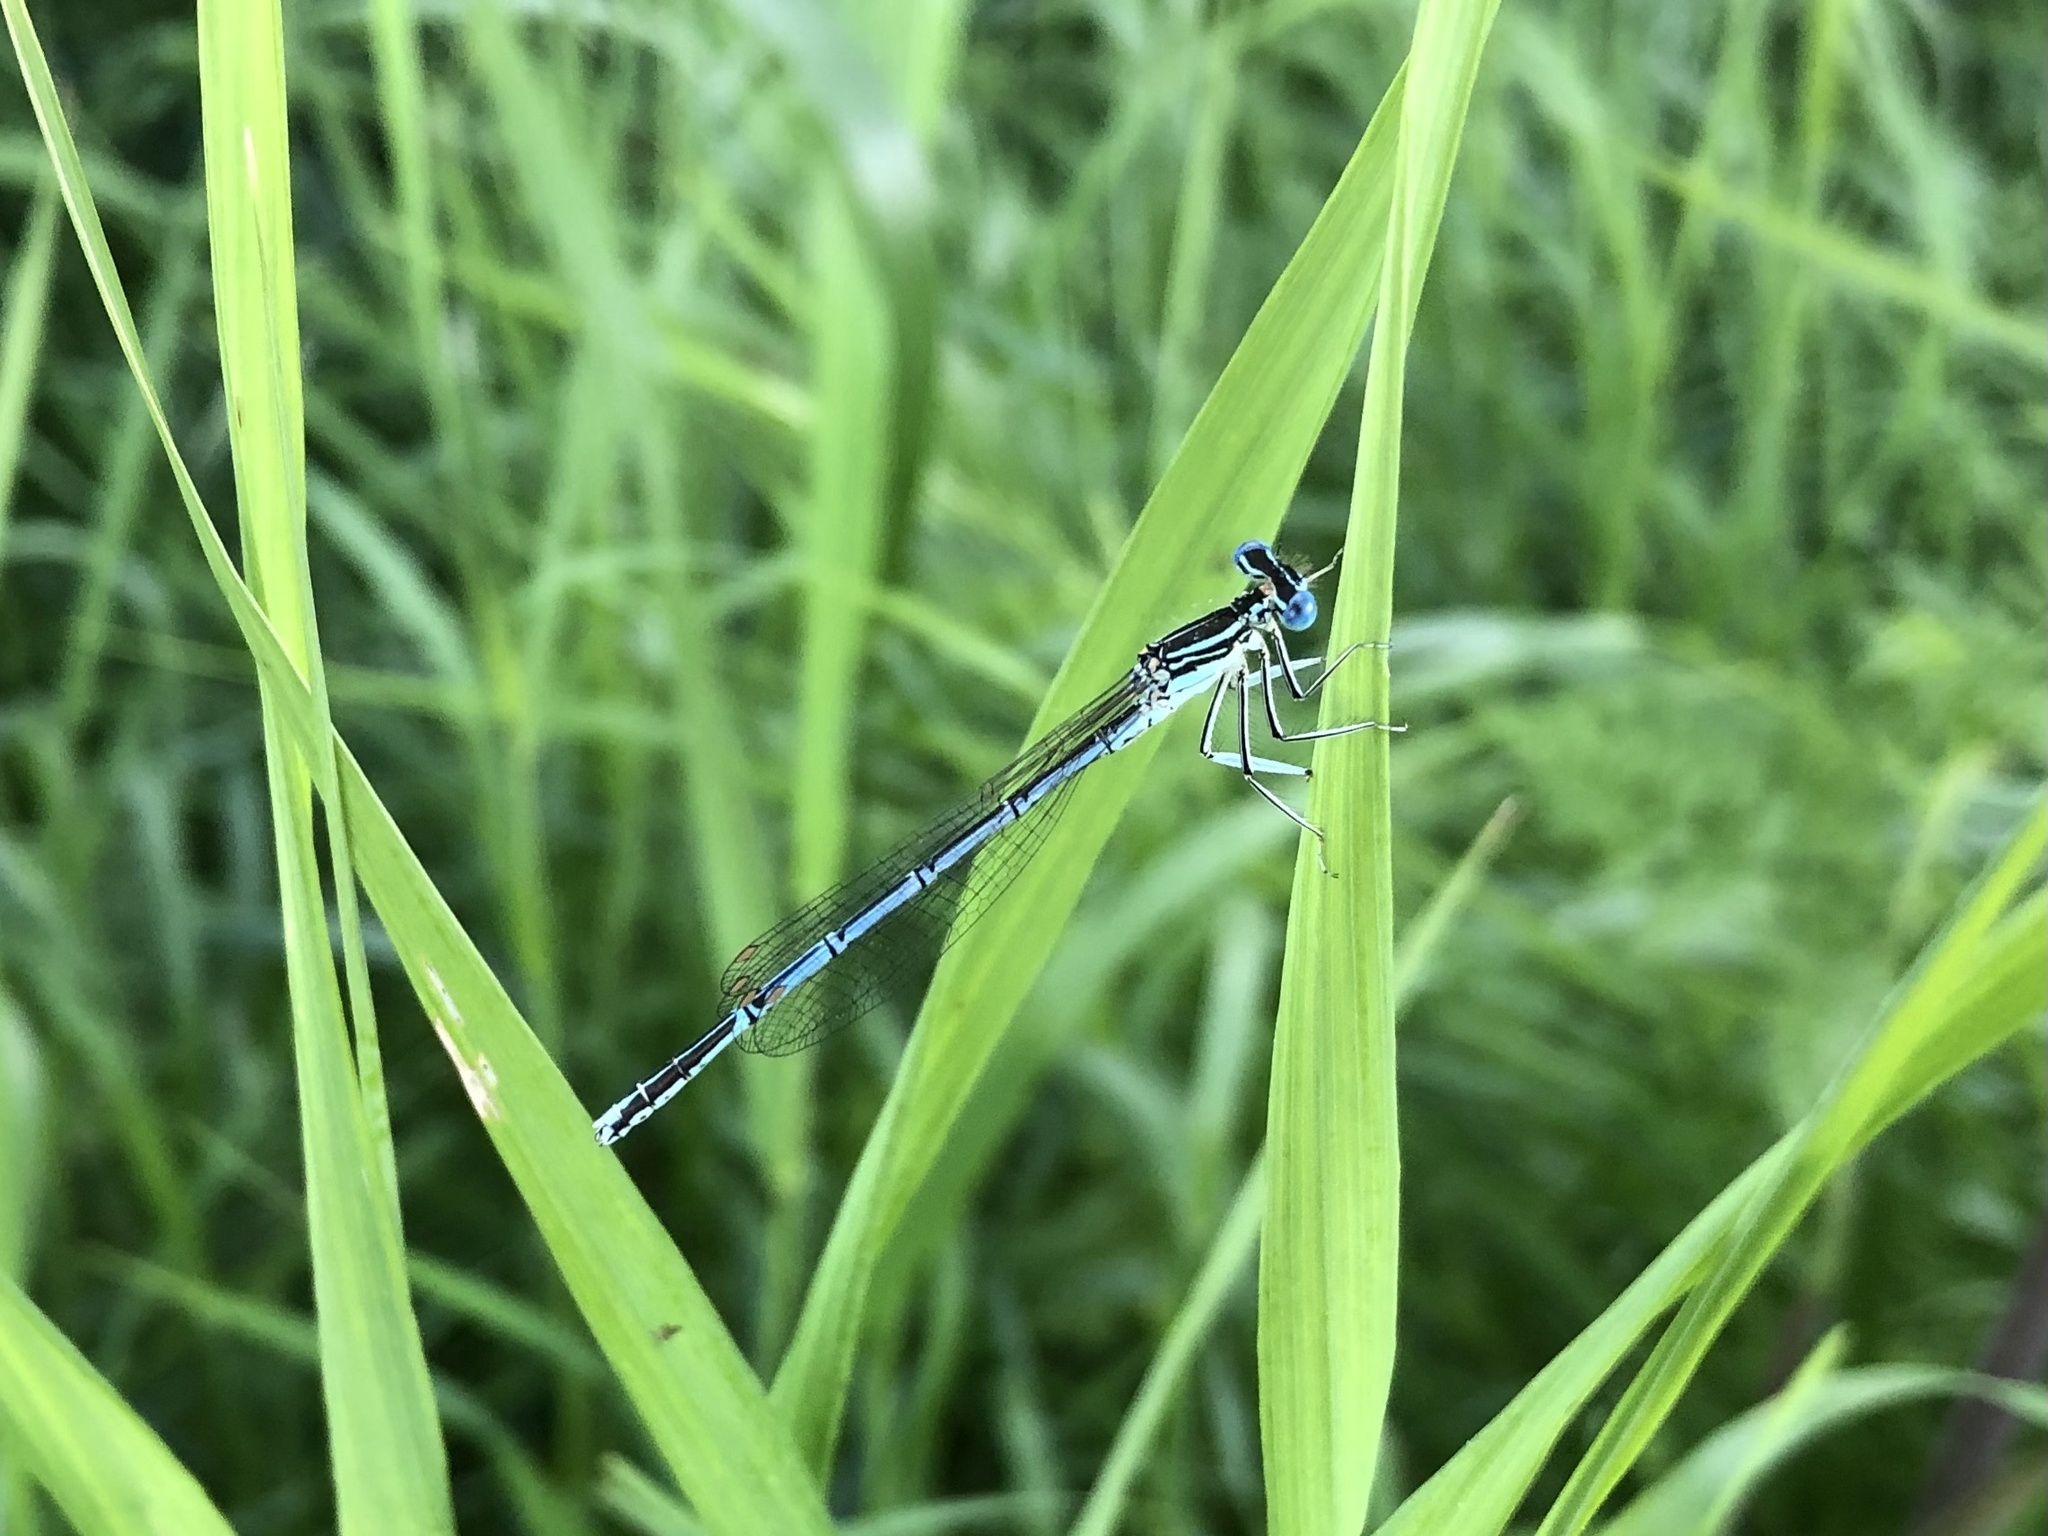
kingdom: Animalia
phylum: Arthropoda
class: Insecta
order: Odonata
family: Platycnemididae
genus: Platycnemis
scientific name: Platycnemis pennipes
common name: White-legged damselfly
